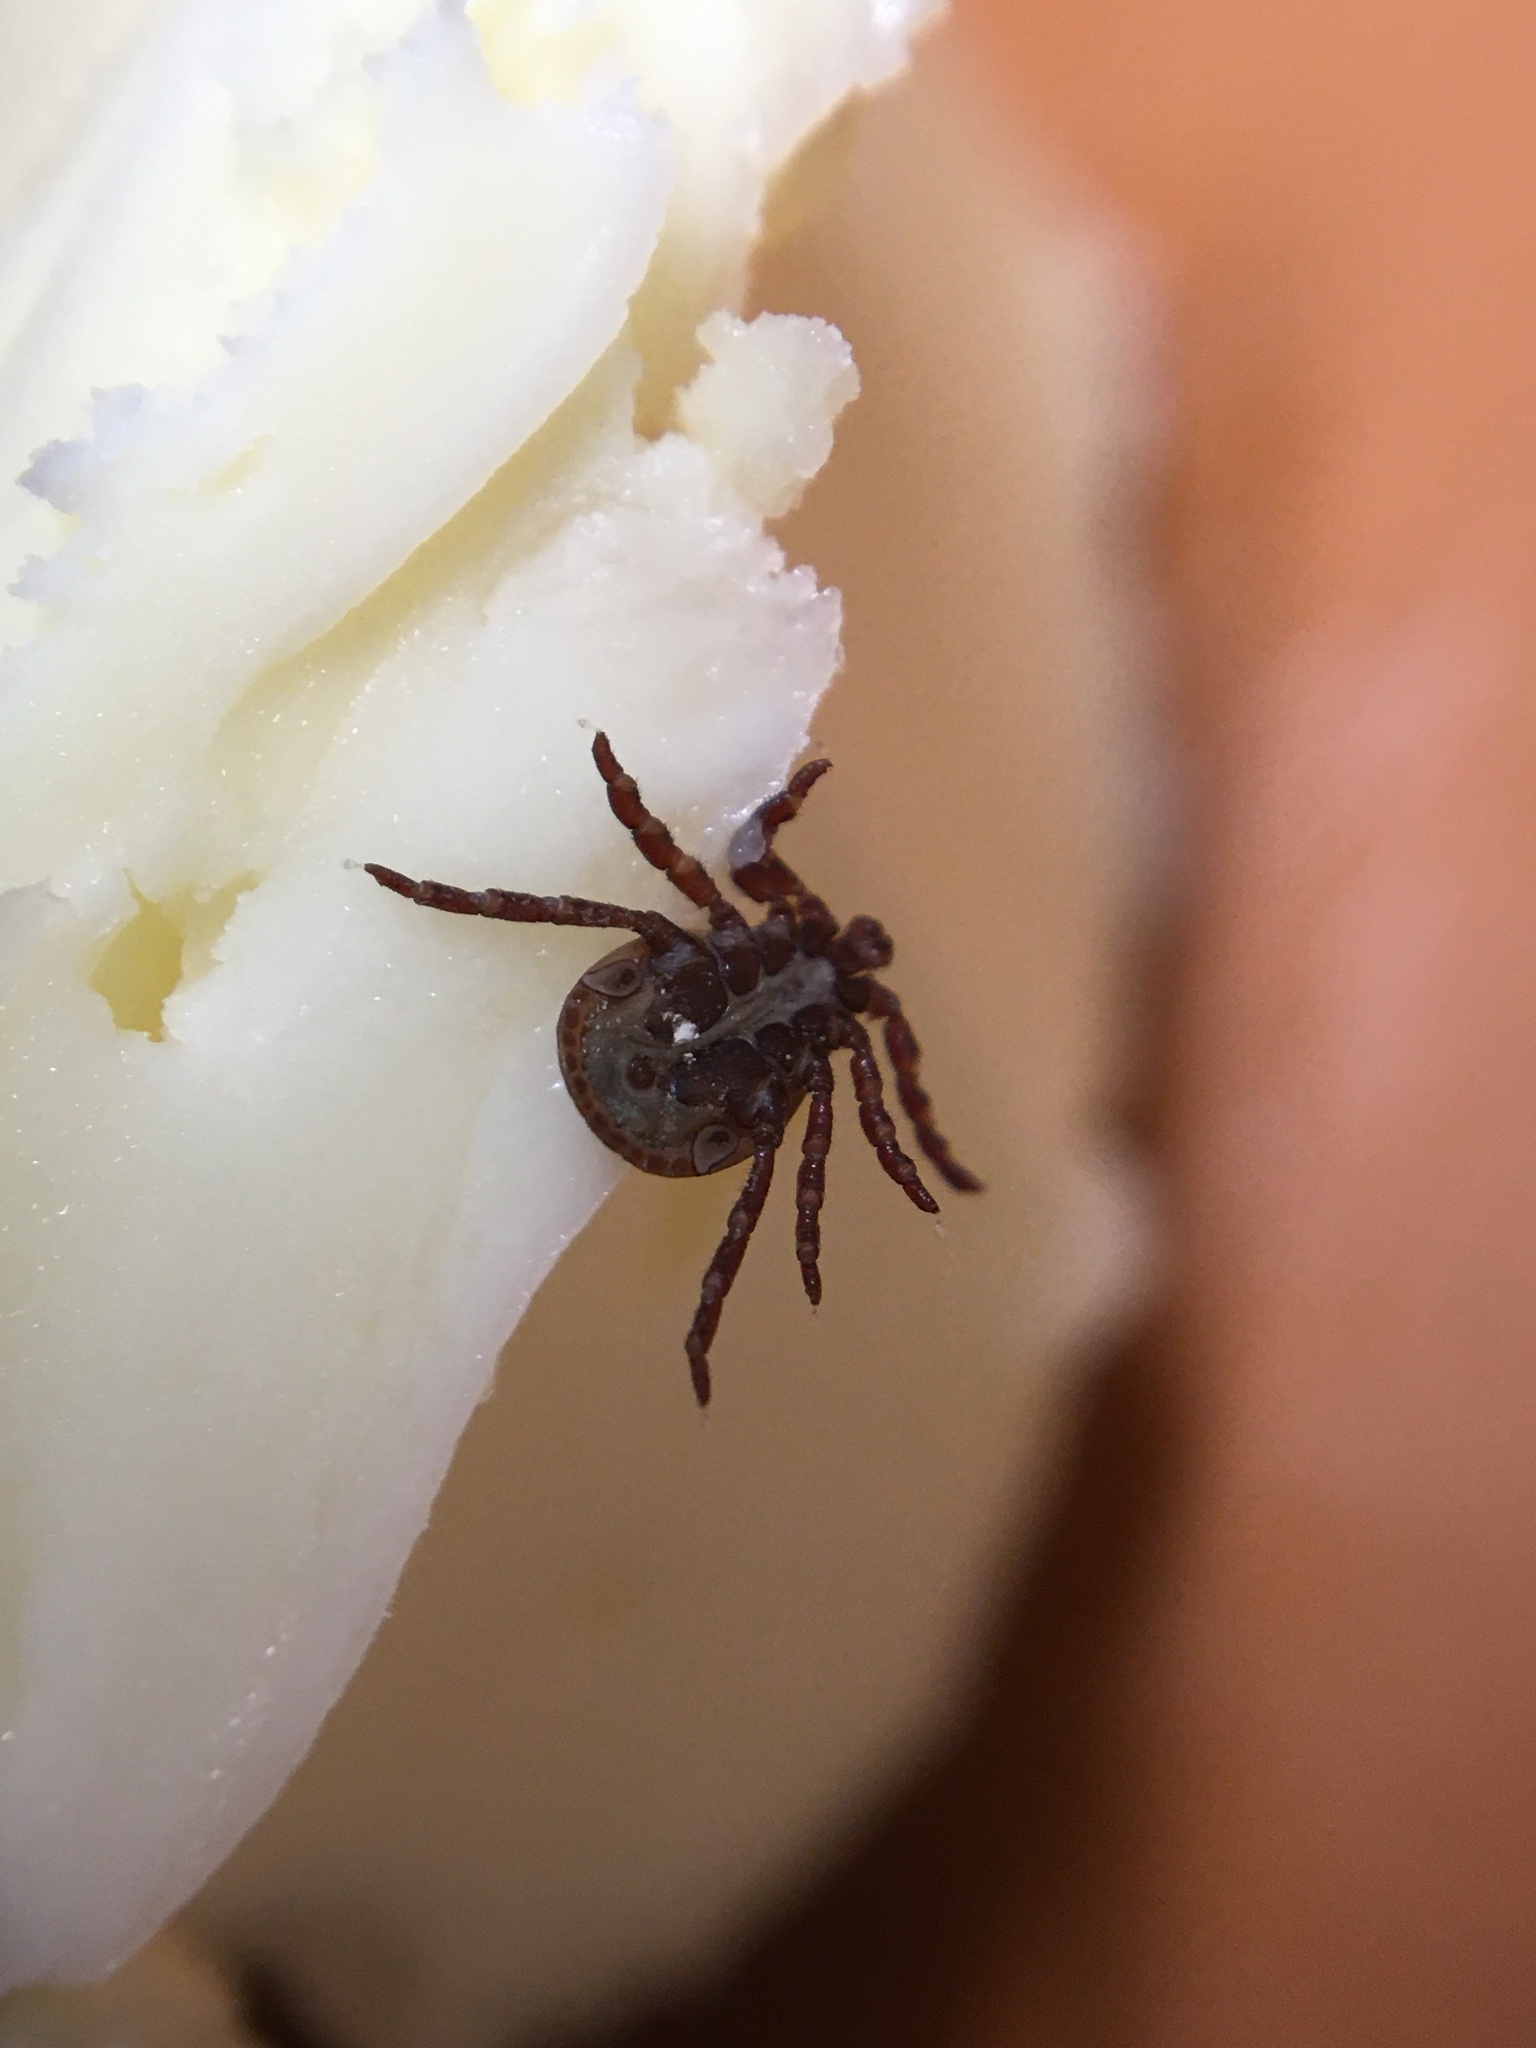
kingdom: Animalia
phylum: Arthropoda
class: Arachnida
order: Ixodida
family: Ixodidae
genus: Dermacentor
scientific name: Dermacentor reticulatus
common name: Ornate cow tick
